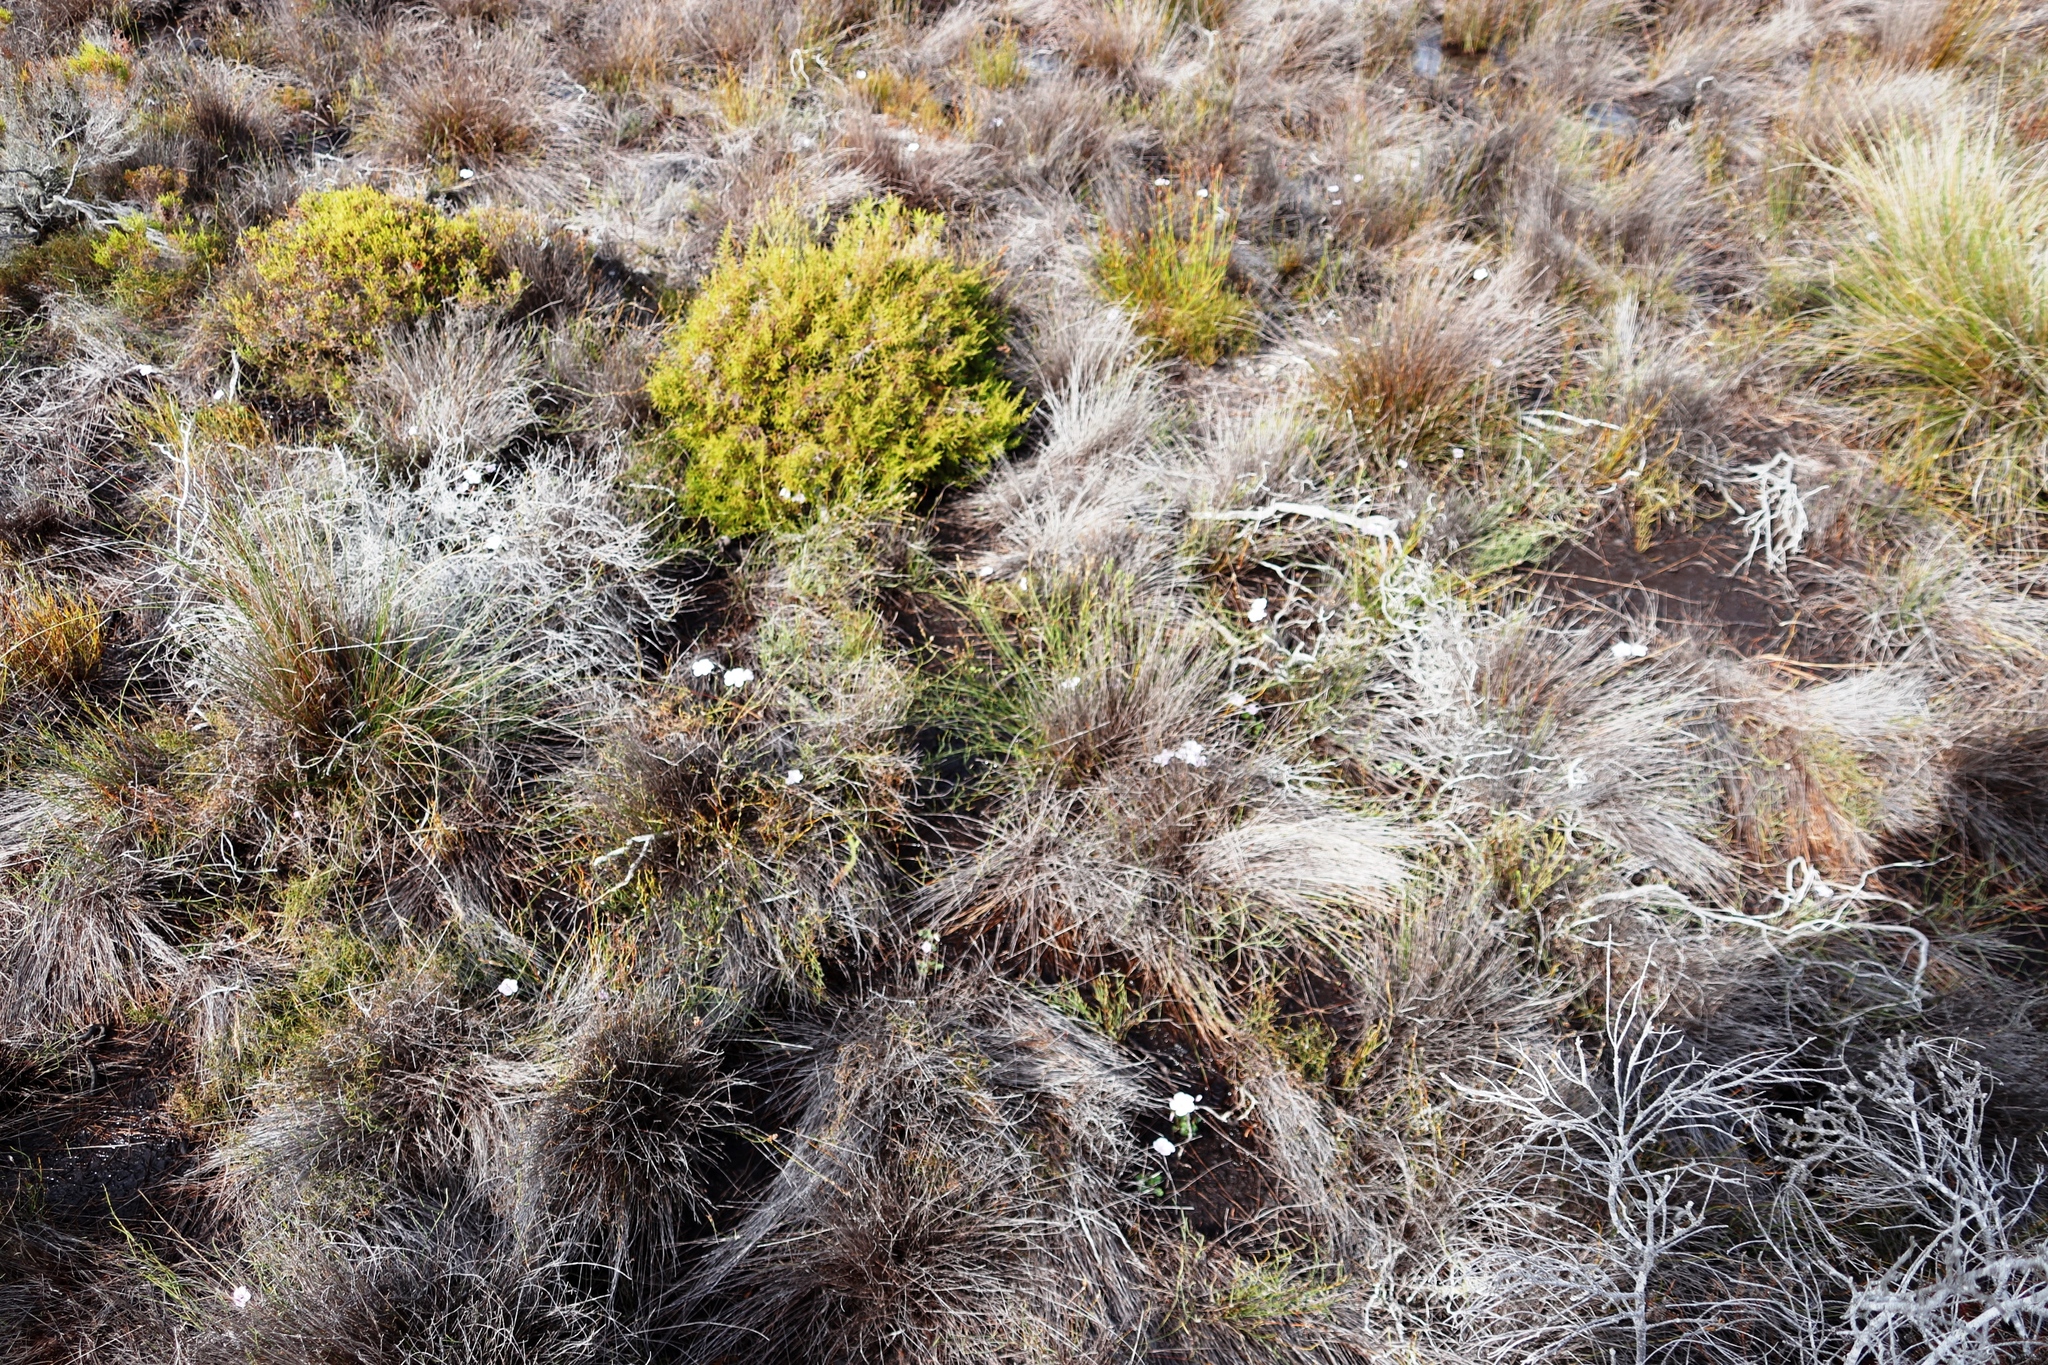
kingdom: Plantae
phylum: Tracheophyta
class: Magnoliopsida
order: Oxalidales
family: Oxalidaceae
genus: Oxalis
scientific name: Oxalis commutata
